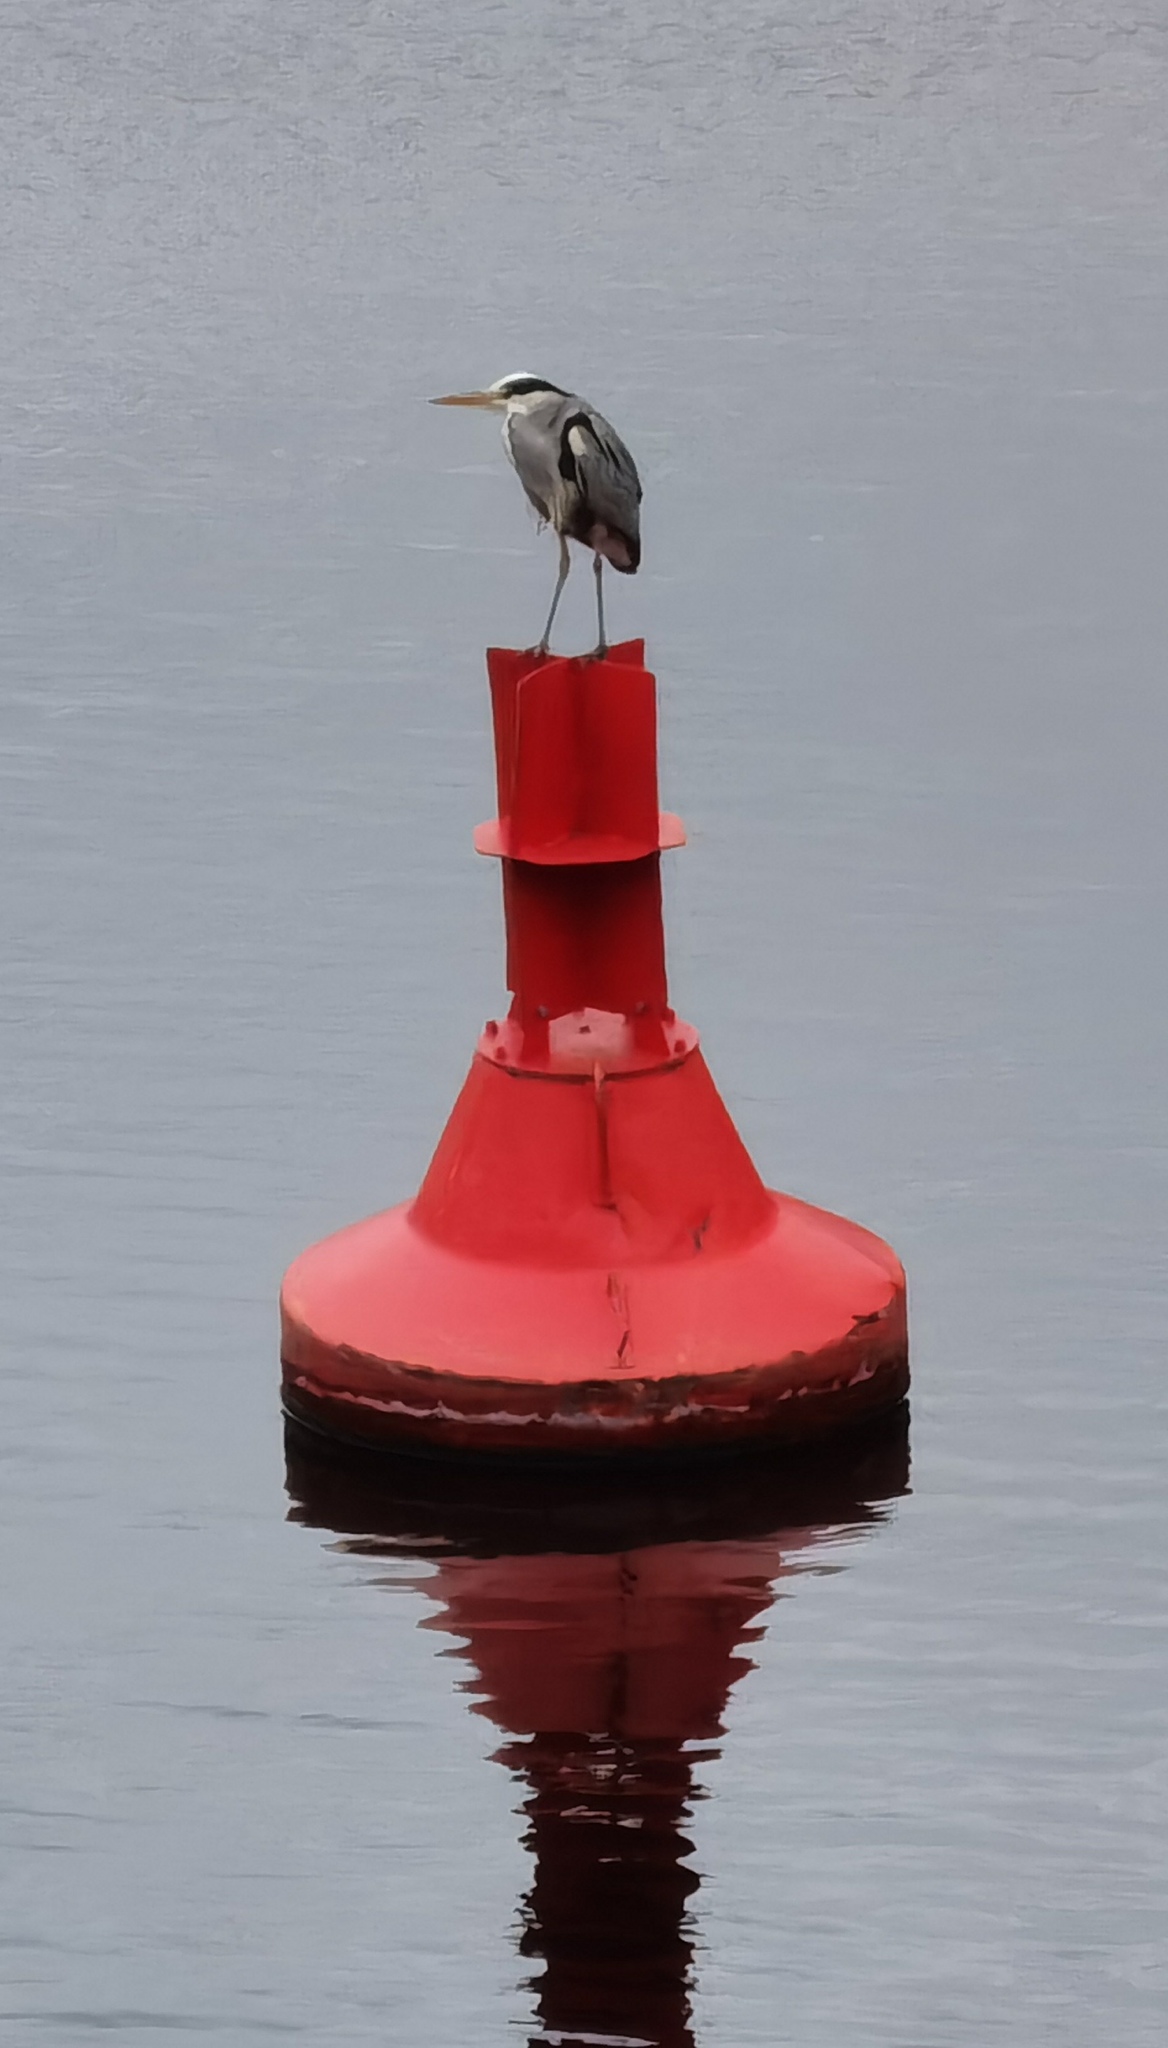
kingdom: Animalia
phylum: Chordata
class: Aves
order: Pelecaniformes
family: Ardeidae
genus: Ardea
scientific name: Ardea cinerea
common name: Grey heron
